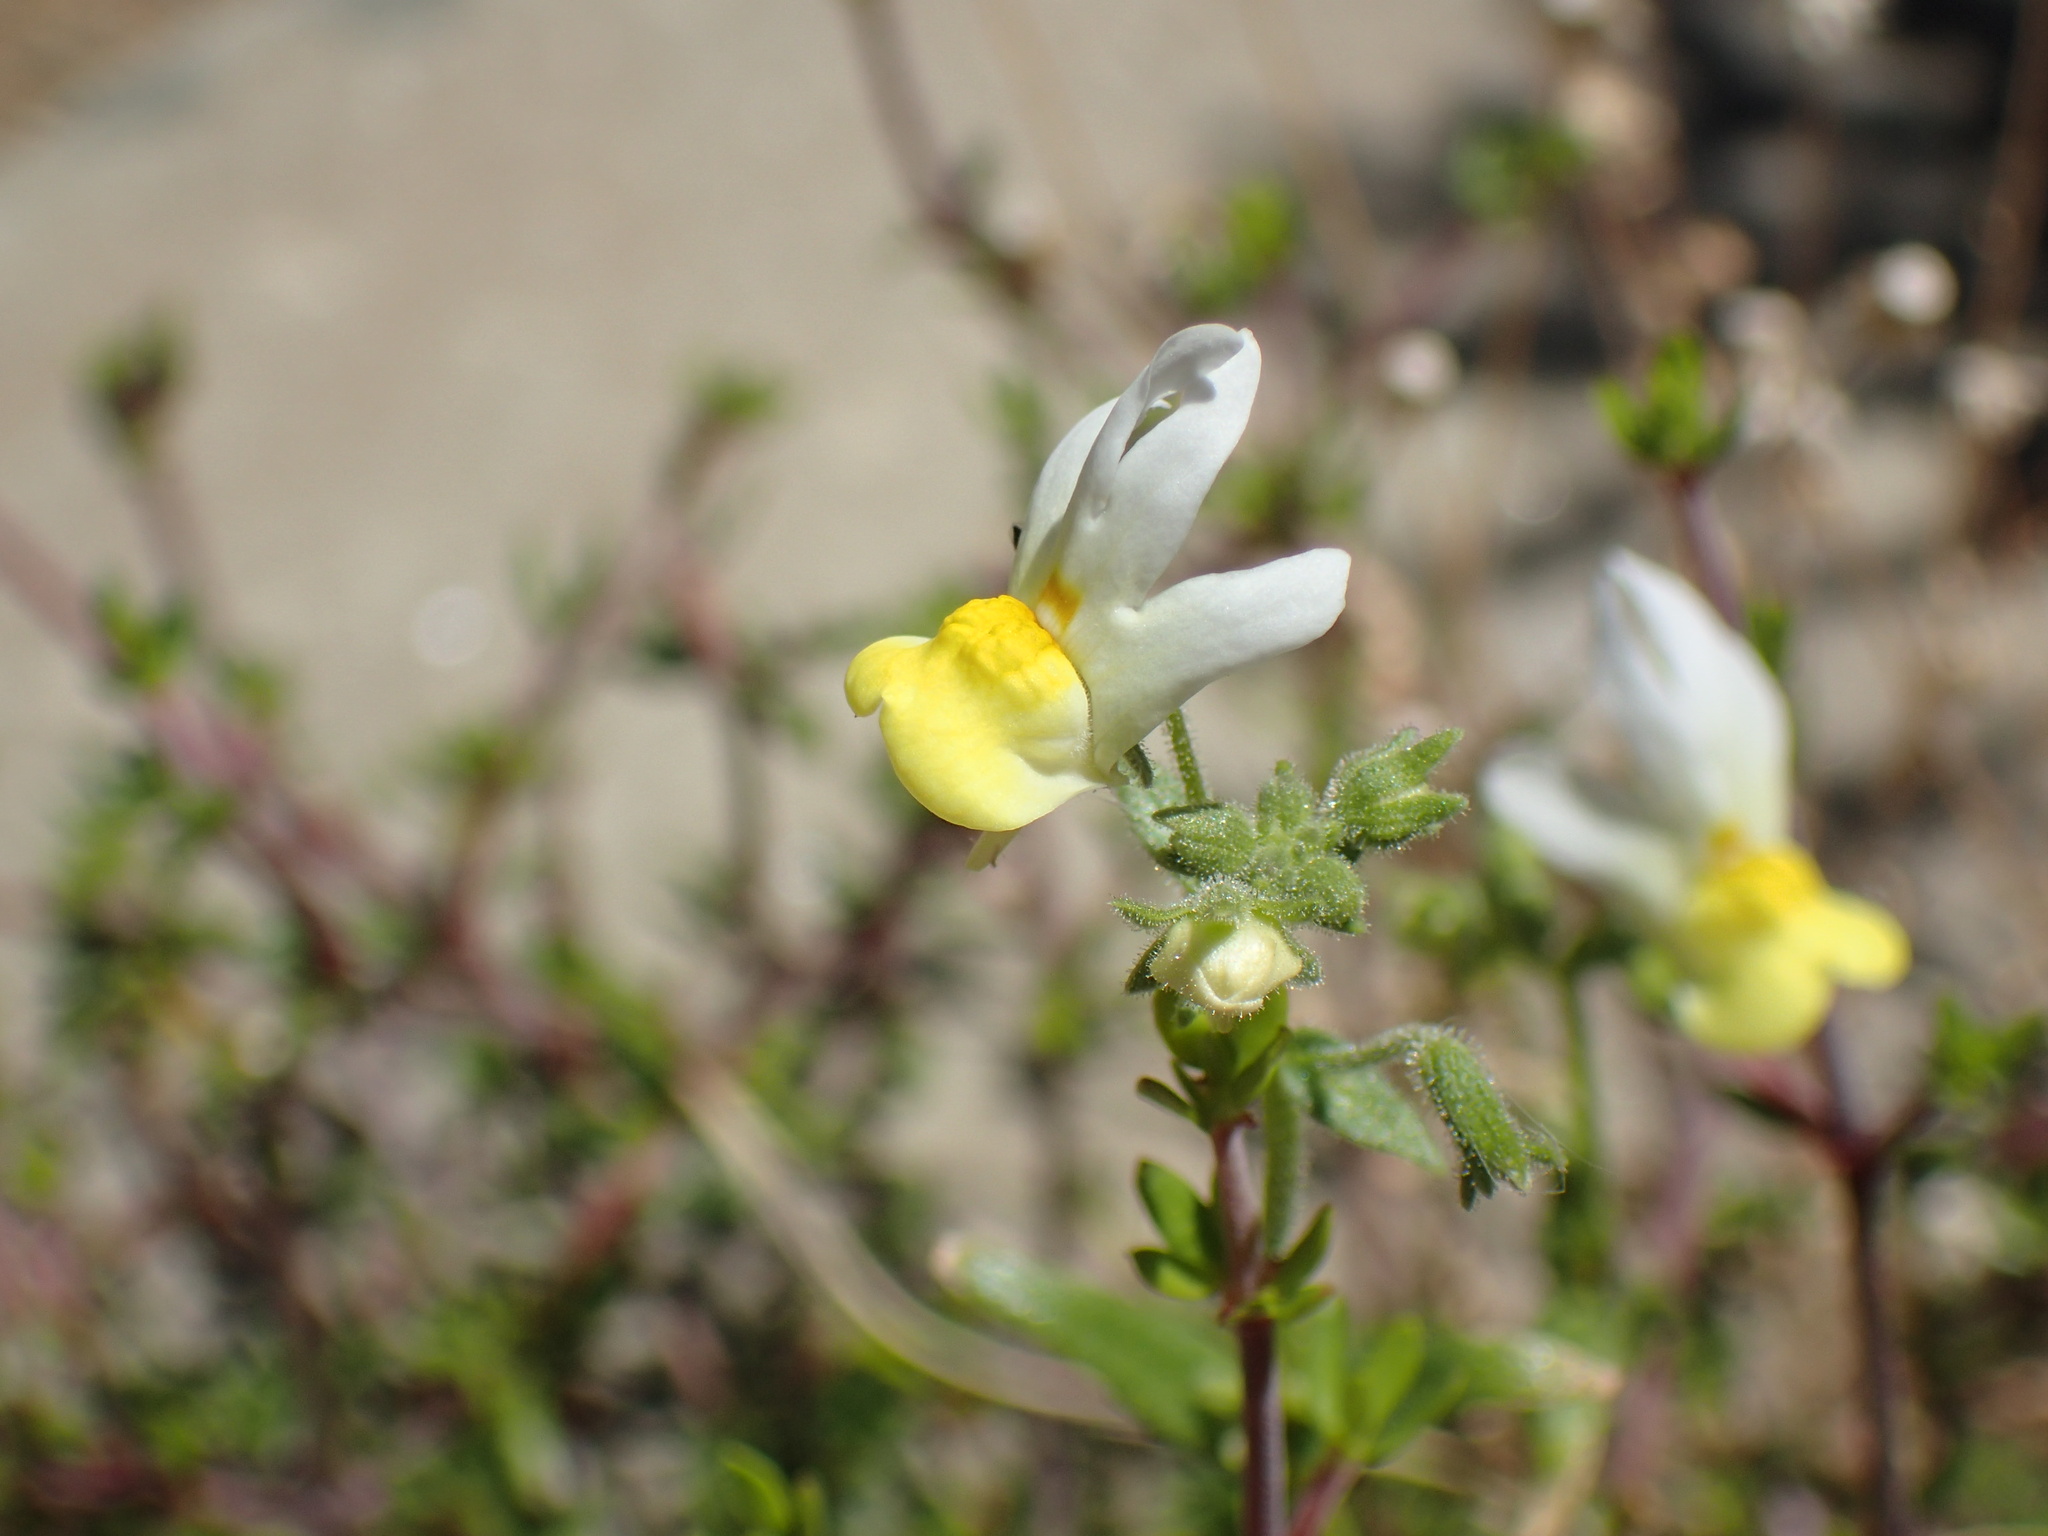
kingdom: Plantae
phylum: Tracheophyta
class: Magnoliopsida
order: Lamiales
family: Scrophulariaceae
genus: Nemesia
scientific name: Nemesia anisocarpa
